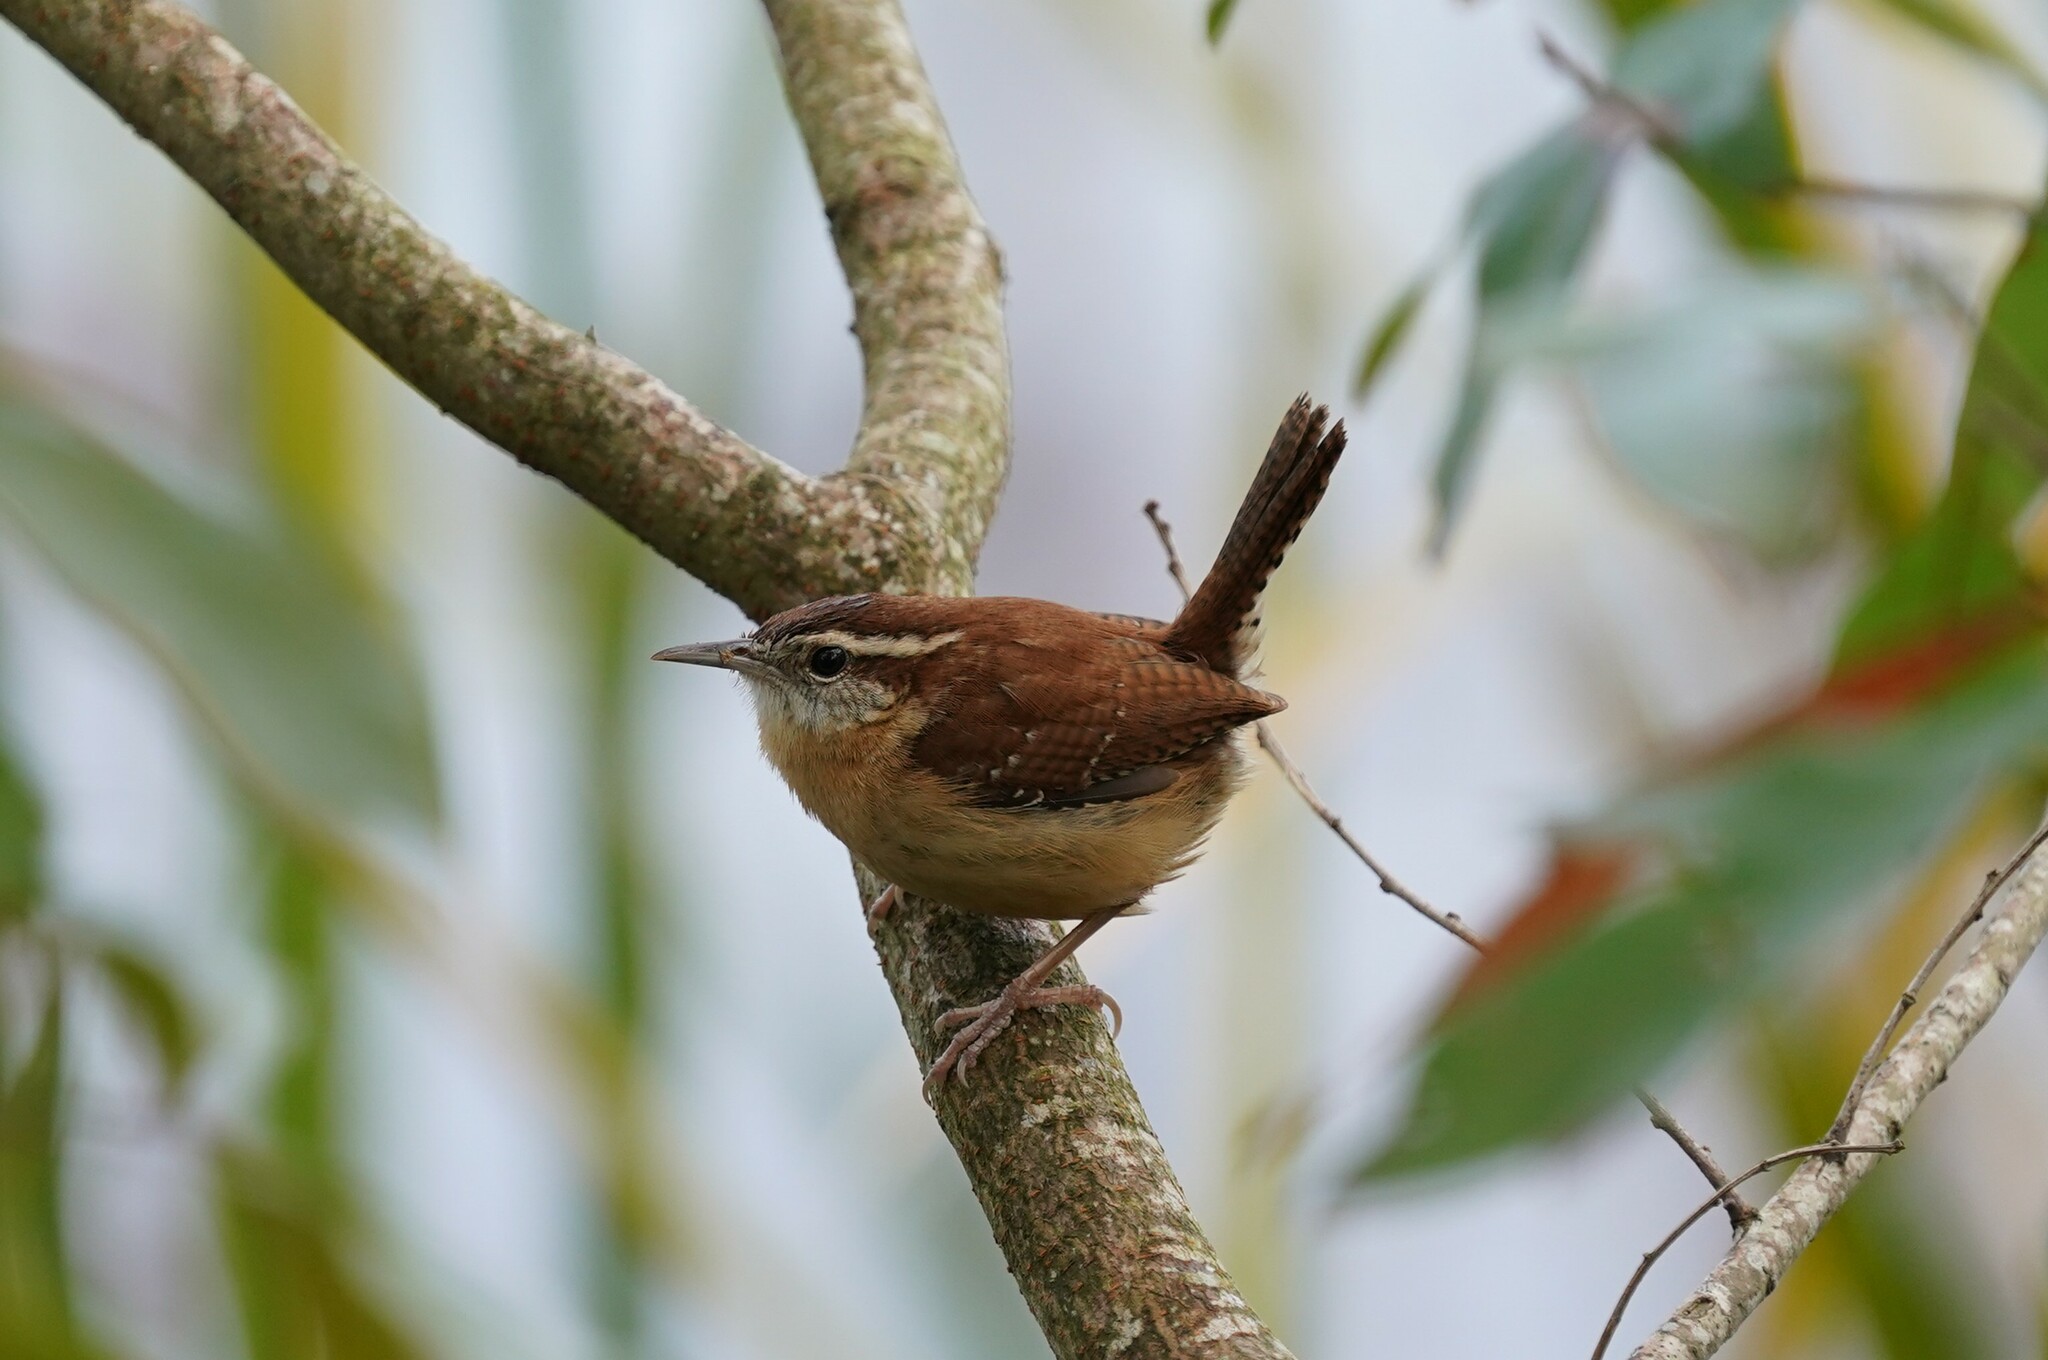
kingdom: Animalia
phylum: Chordata
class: Aves
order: Passeriformes
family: Troglodytidae
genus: Thryothorus
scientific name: Thryothorus ludovicianus
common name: Carolina wren
